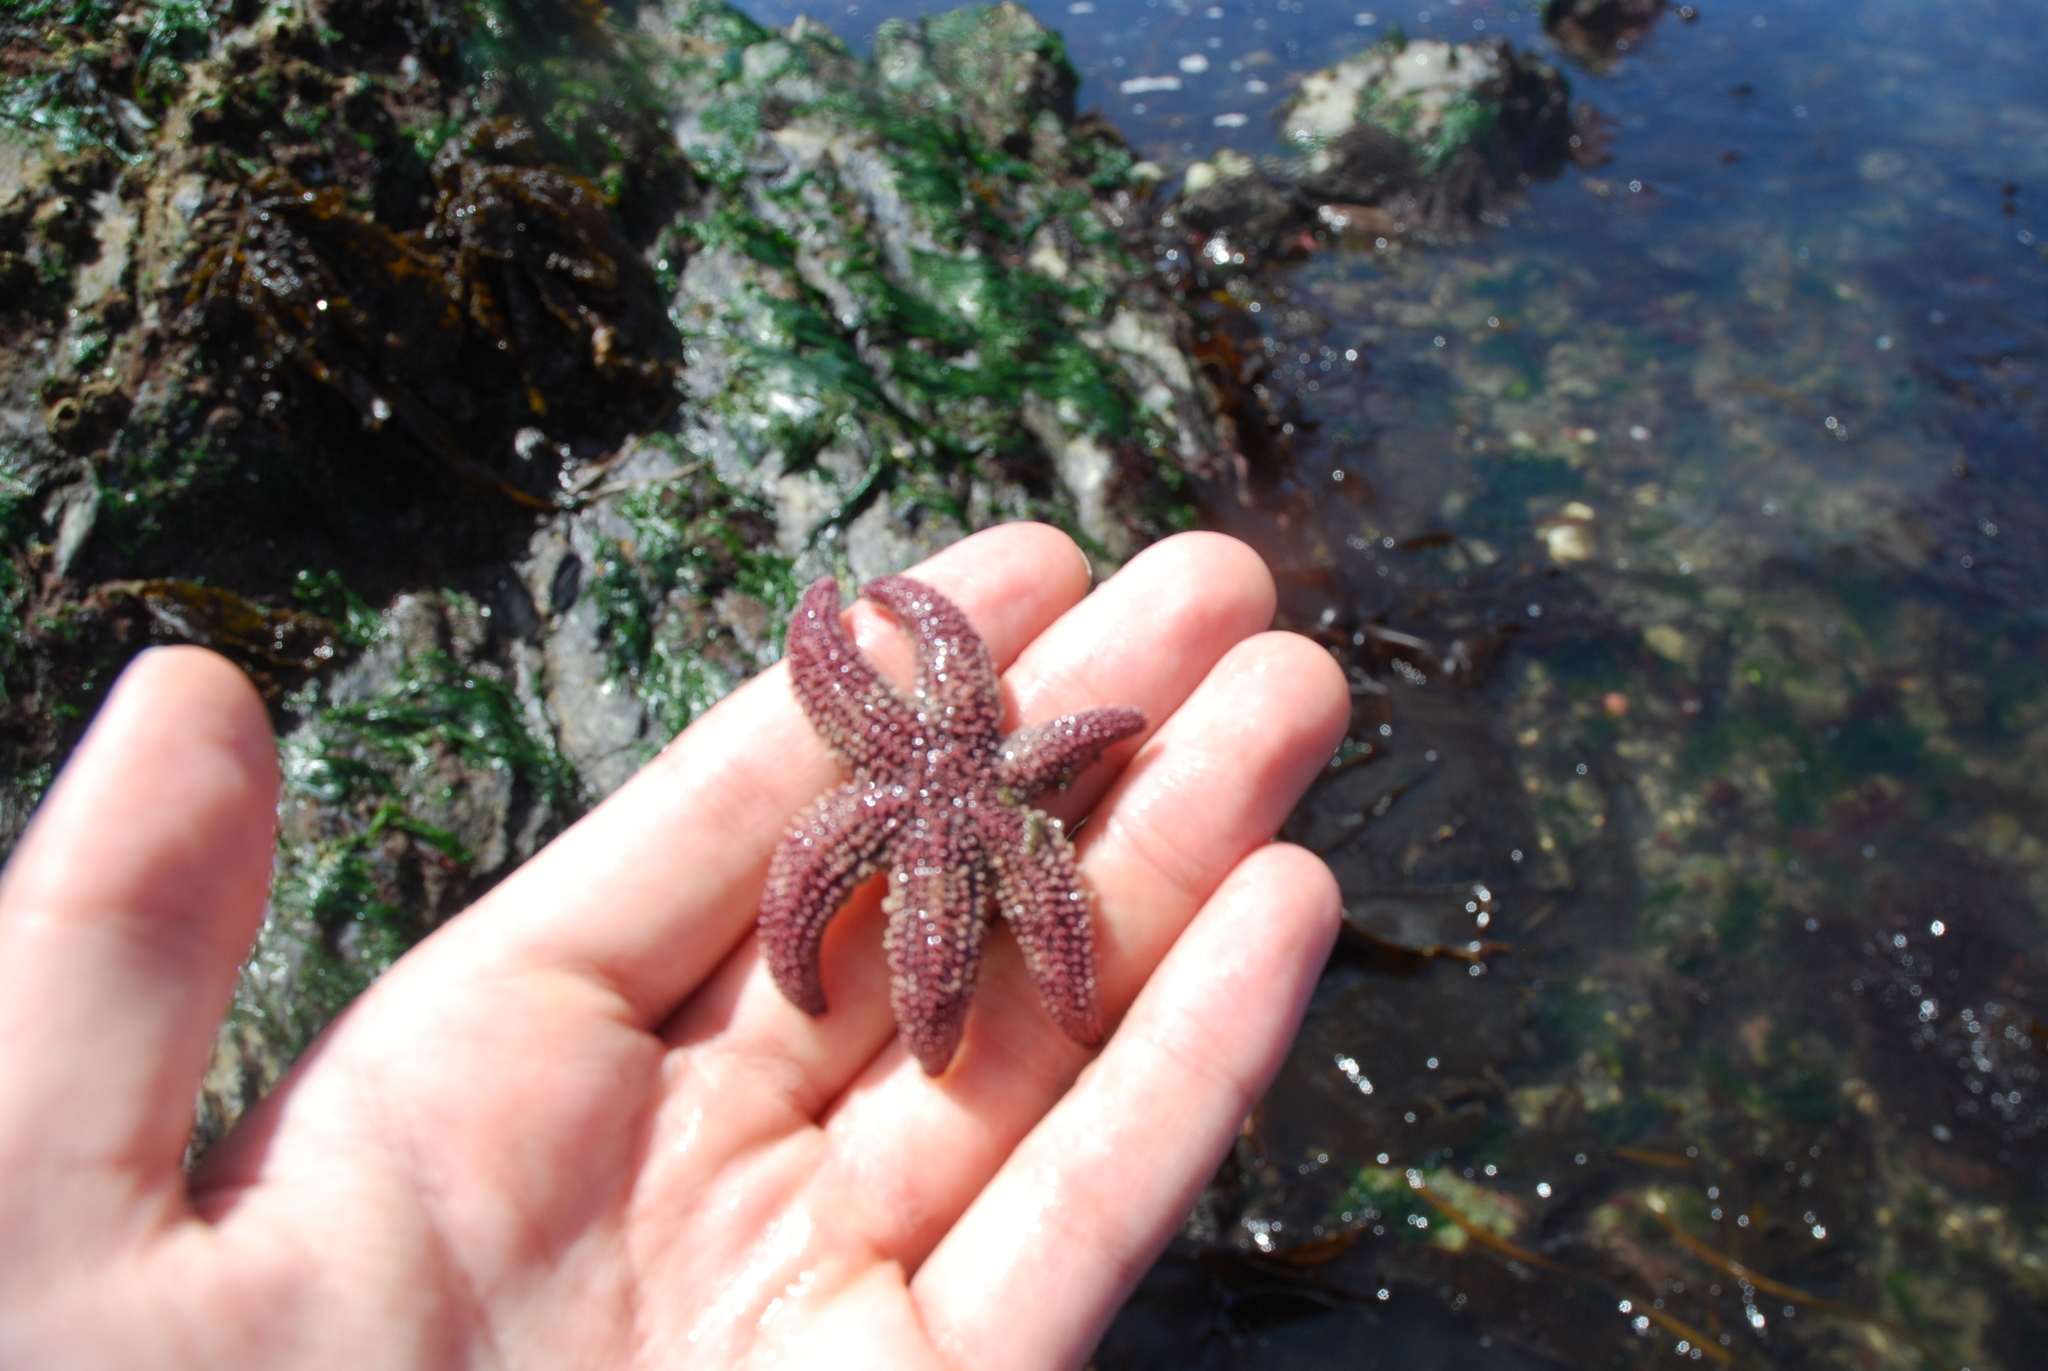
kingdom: Animalia
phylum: Echinodermata
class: Asteroidea
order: Forcipulatida
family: Asteriidae
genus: Leptasterias
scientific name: Leptasterias hexactis
